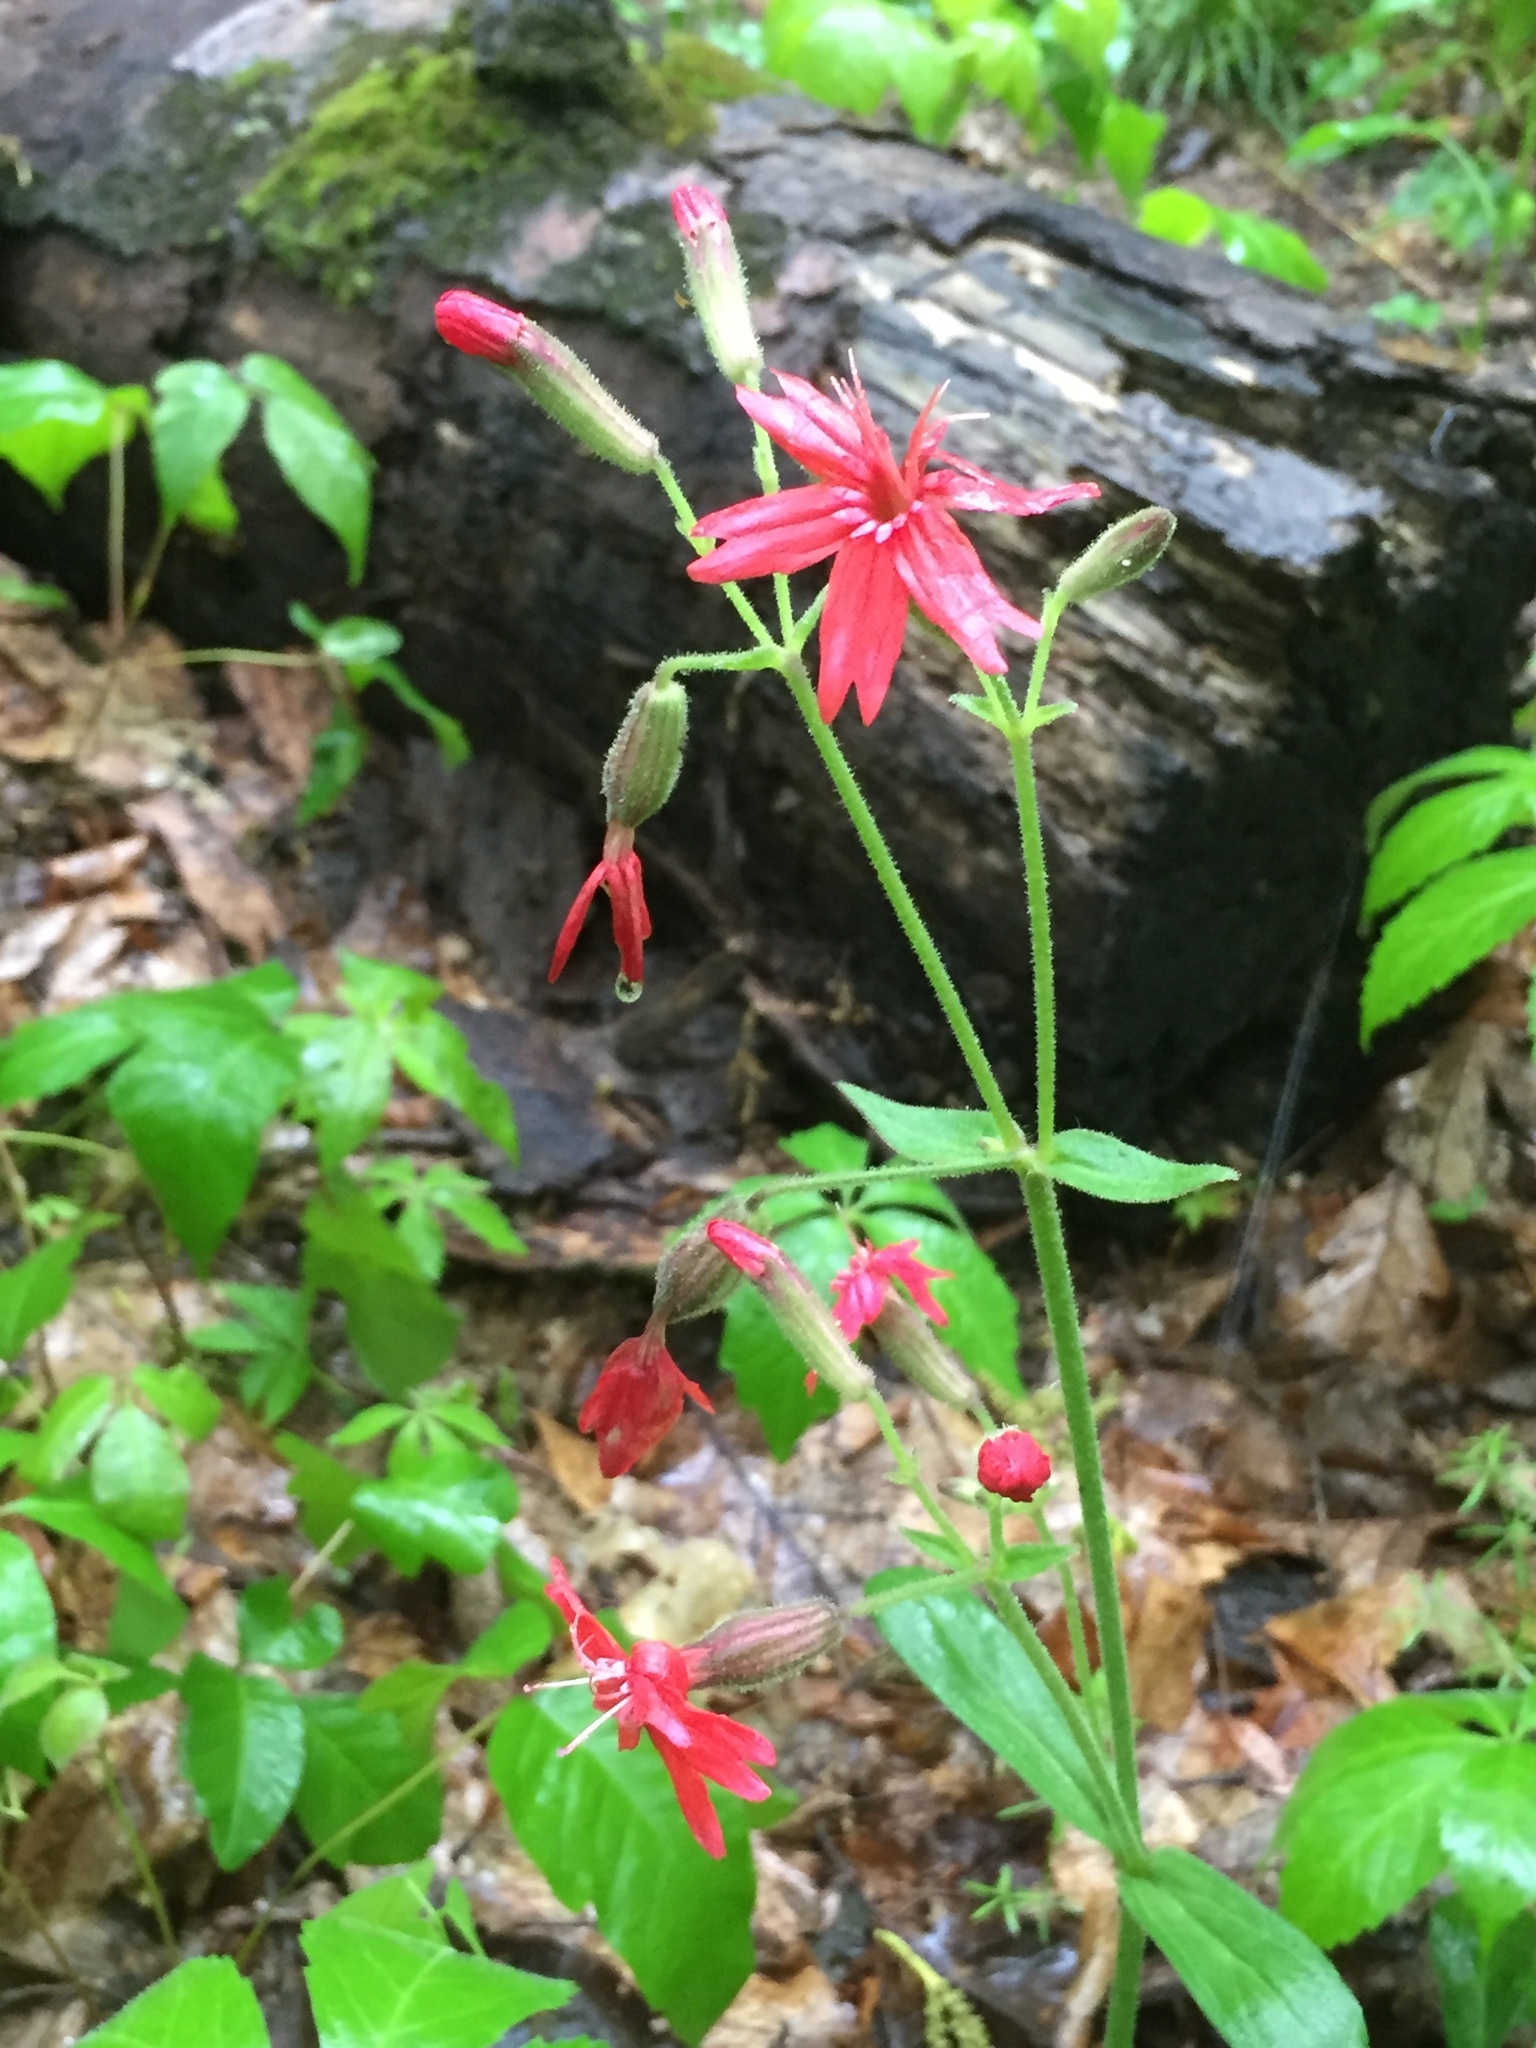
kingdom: Plantae
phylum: Tracheophyta
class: Magnoliopsida
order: Caryophyllales
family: Caryophyllaceae
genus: Silene
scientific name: Silene virginica
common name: Fire-pink
